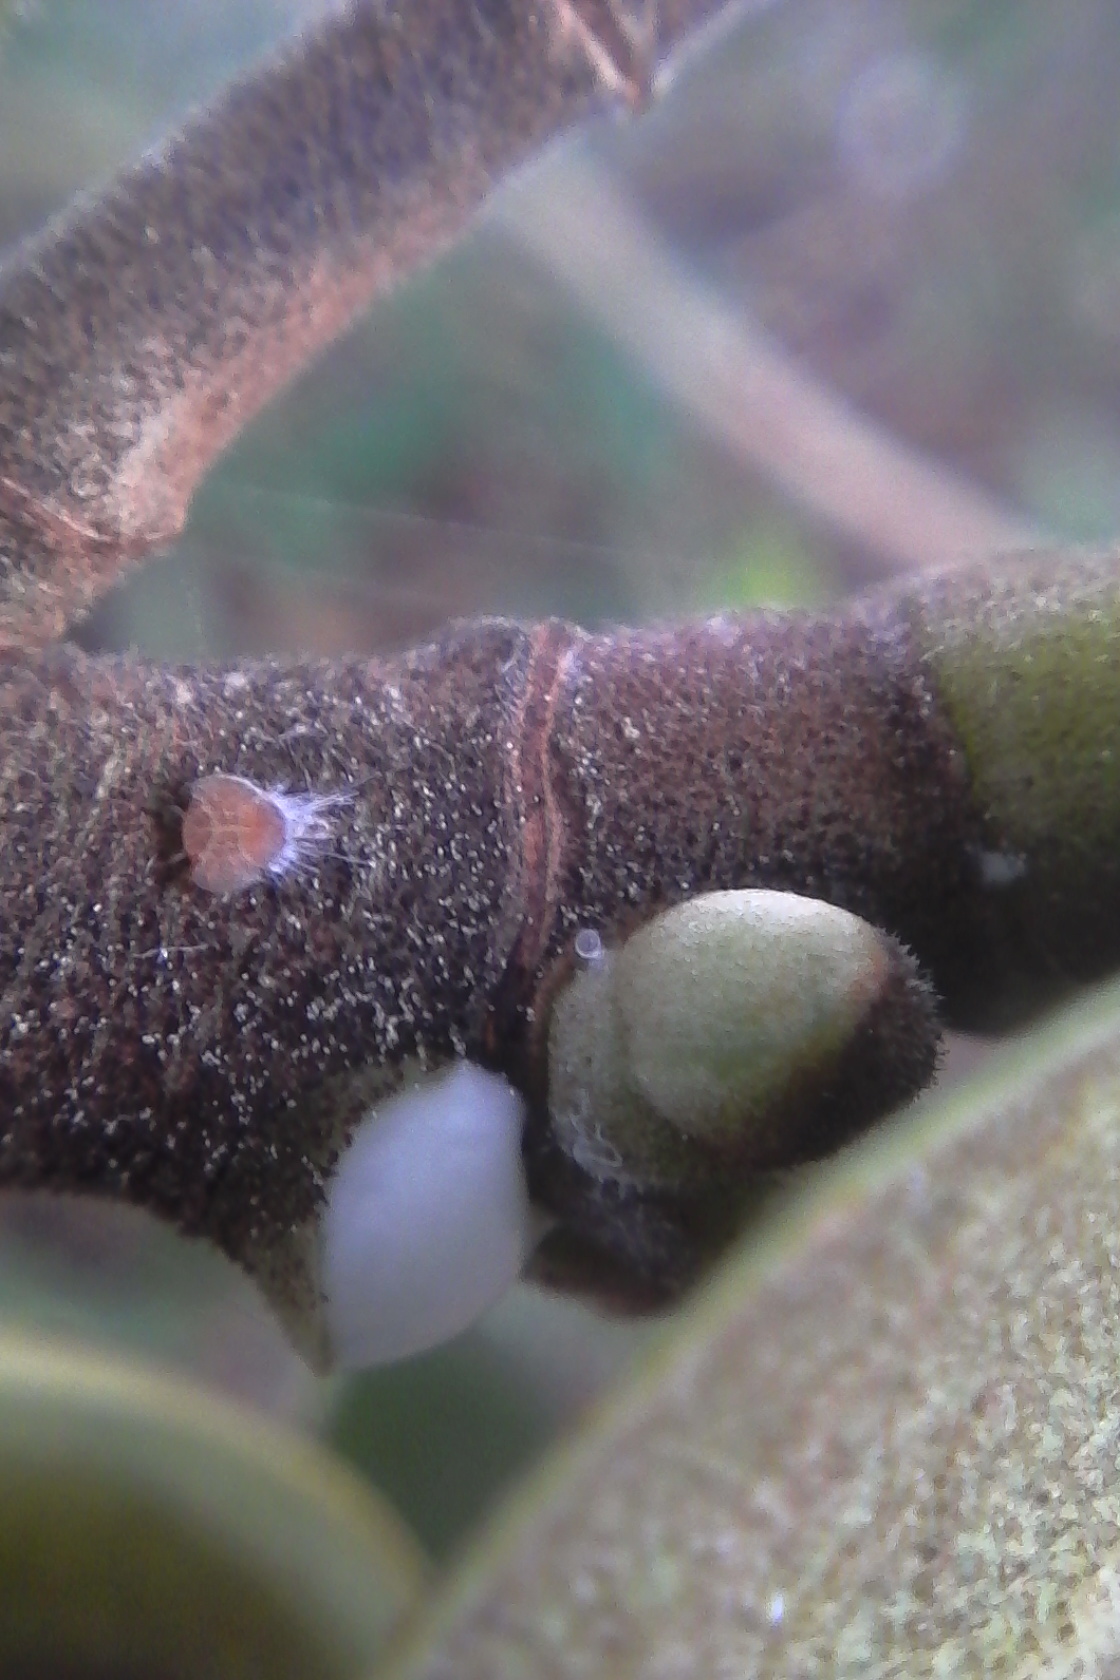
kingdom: Animalia
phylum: Arthropoda
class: Insecta
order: Hemiptera
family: Homotomidae
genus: Mycopsylla
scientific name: Mycopsylla obliqua
